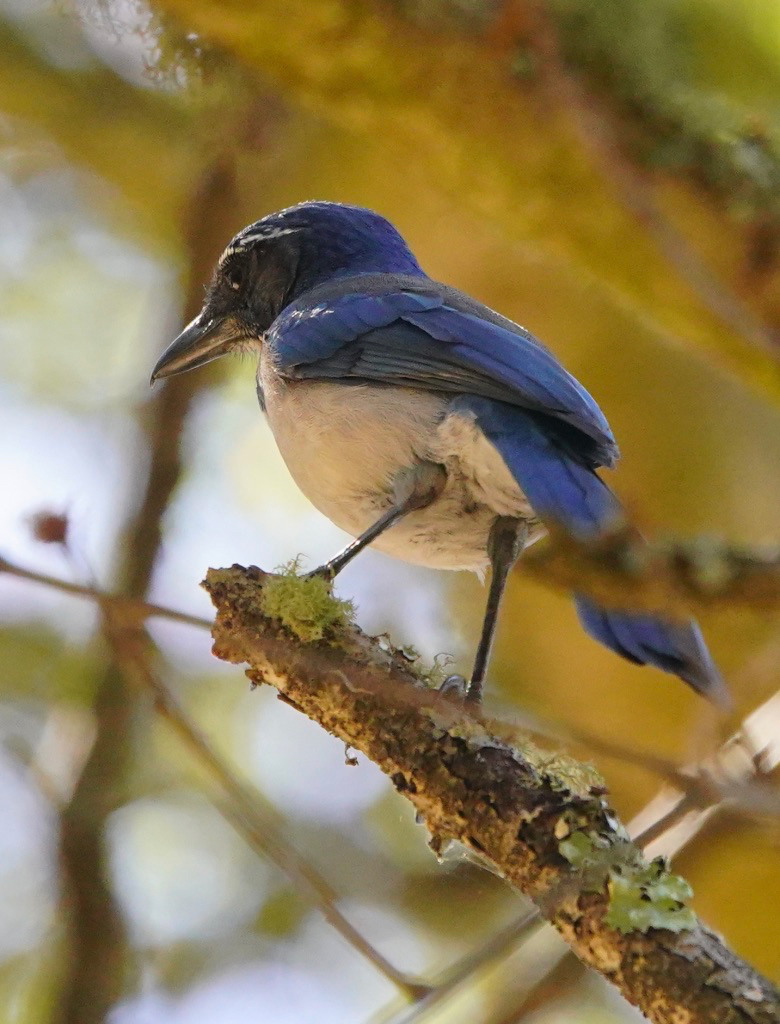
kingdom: Animalia
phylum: Chordata
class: Aves
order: Passeriformes
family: Corvidae
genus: Aphelocoma
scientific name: Aphelocoma californica
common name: California scrub-jay
